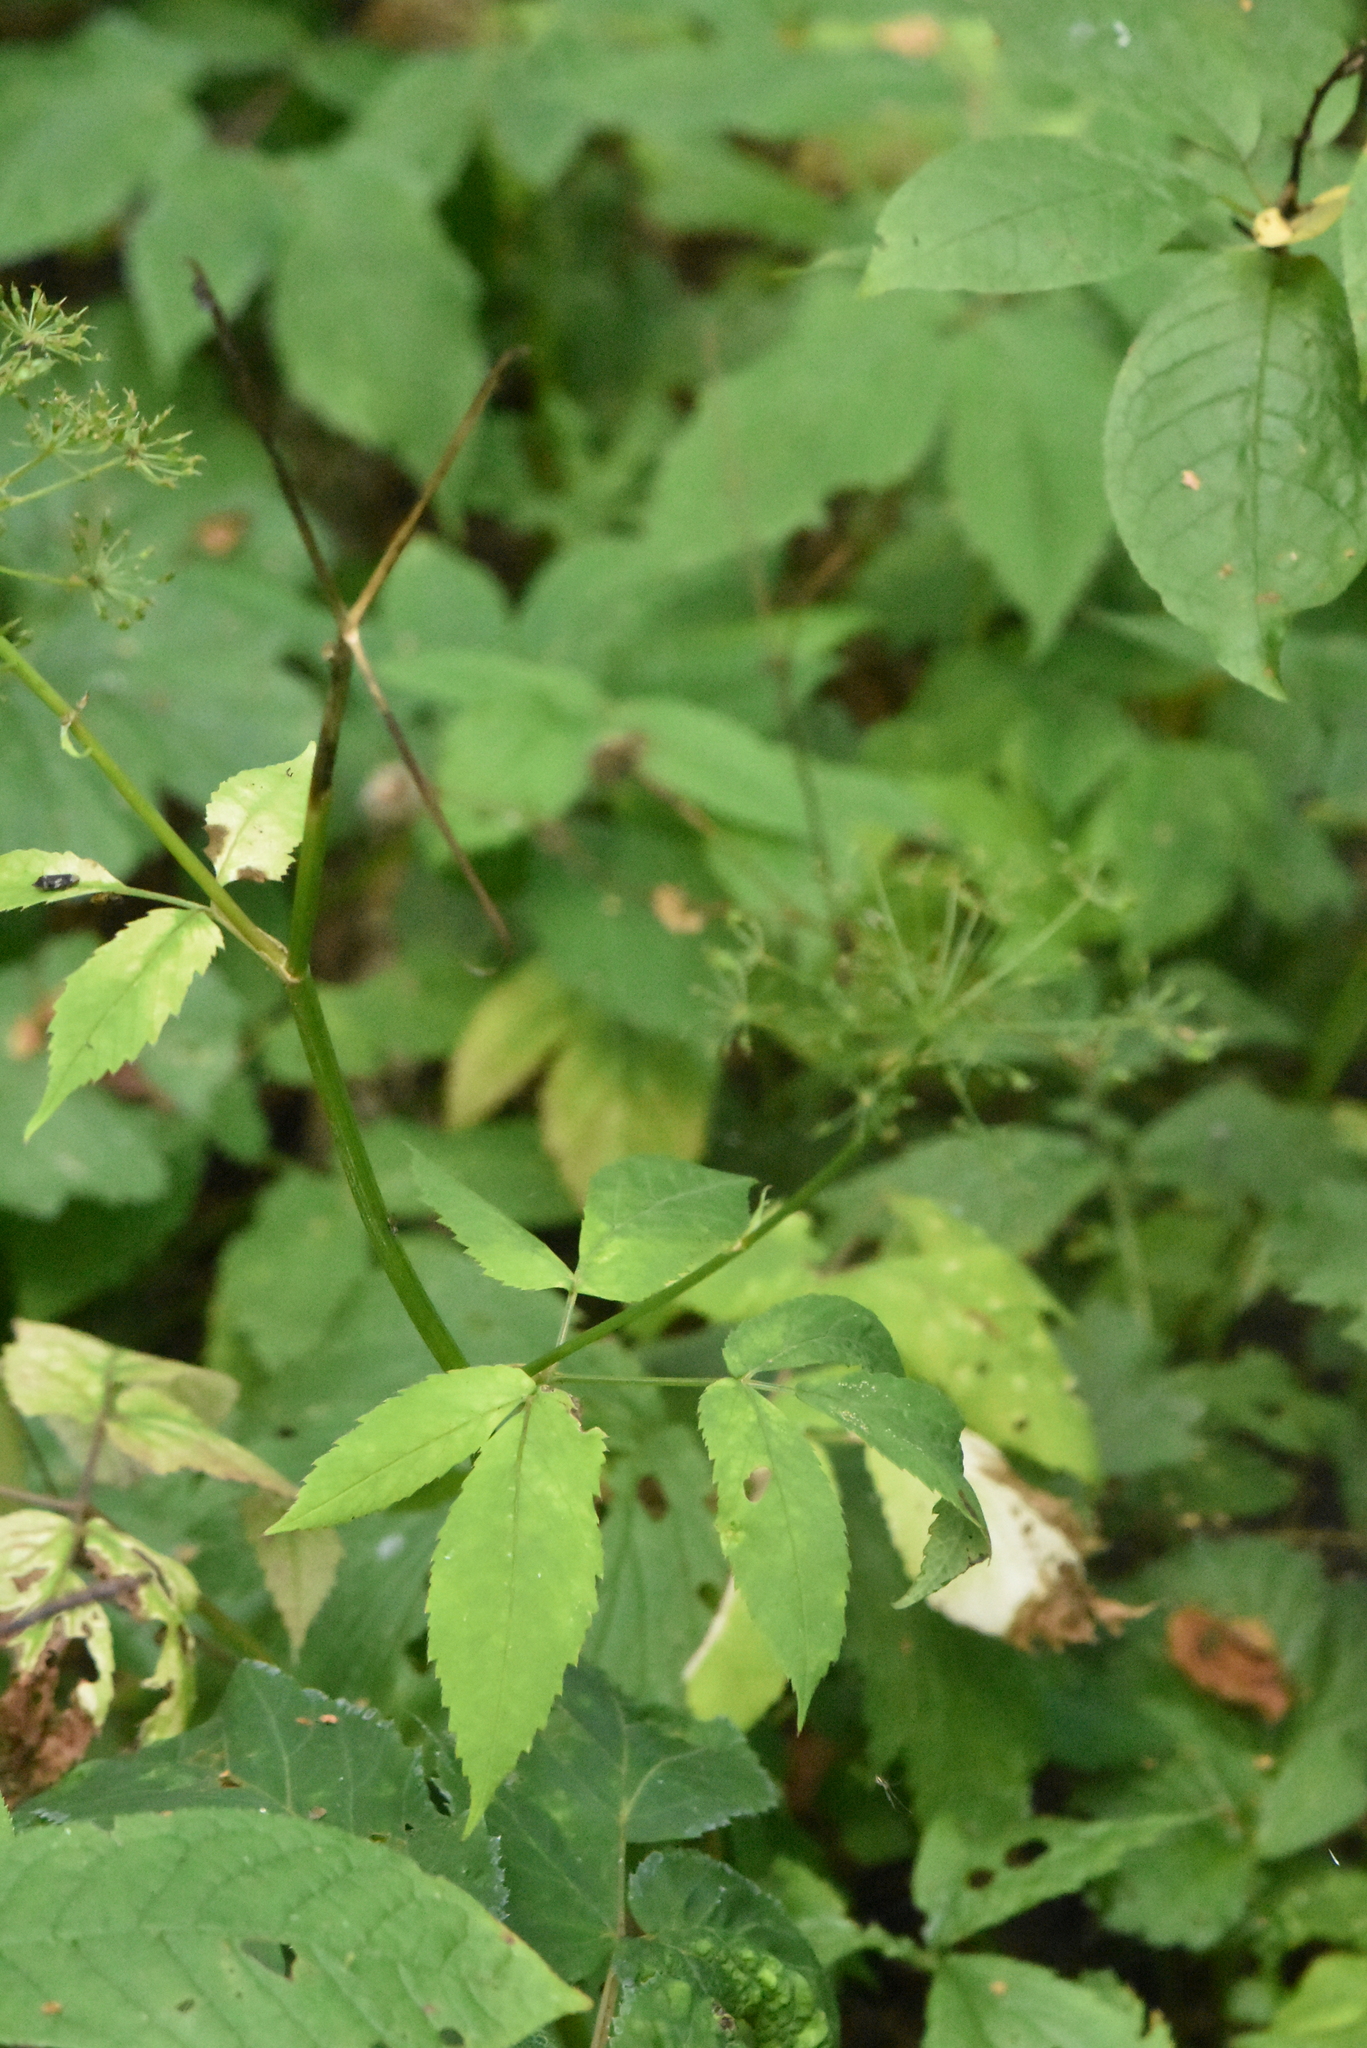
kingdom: Plantae
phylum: Tracheophyta
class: Magnoliopsida
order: Apiales
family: Apiaceae
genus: Aegopodium
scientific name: Aegopodium podagraria
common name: Ground-elder
